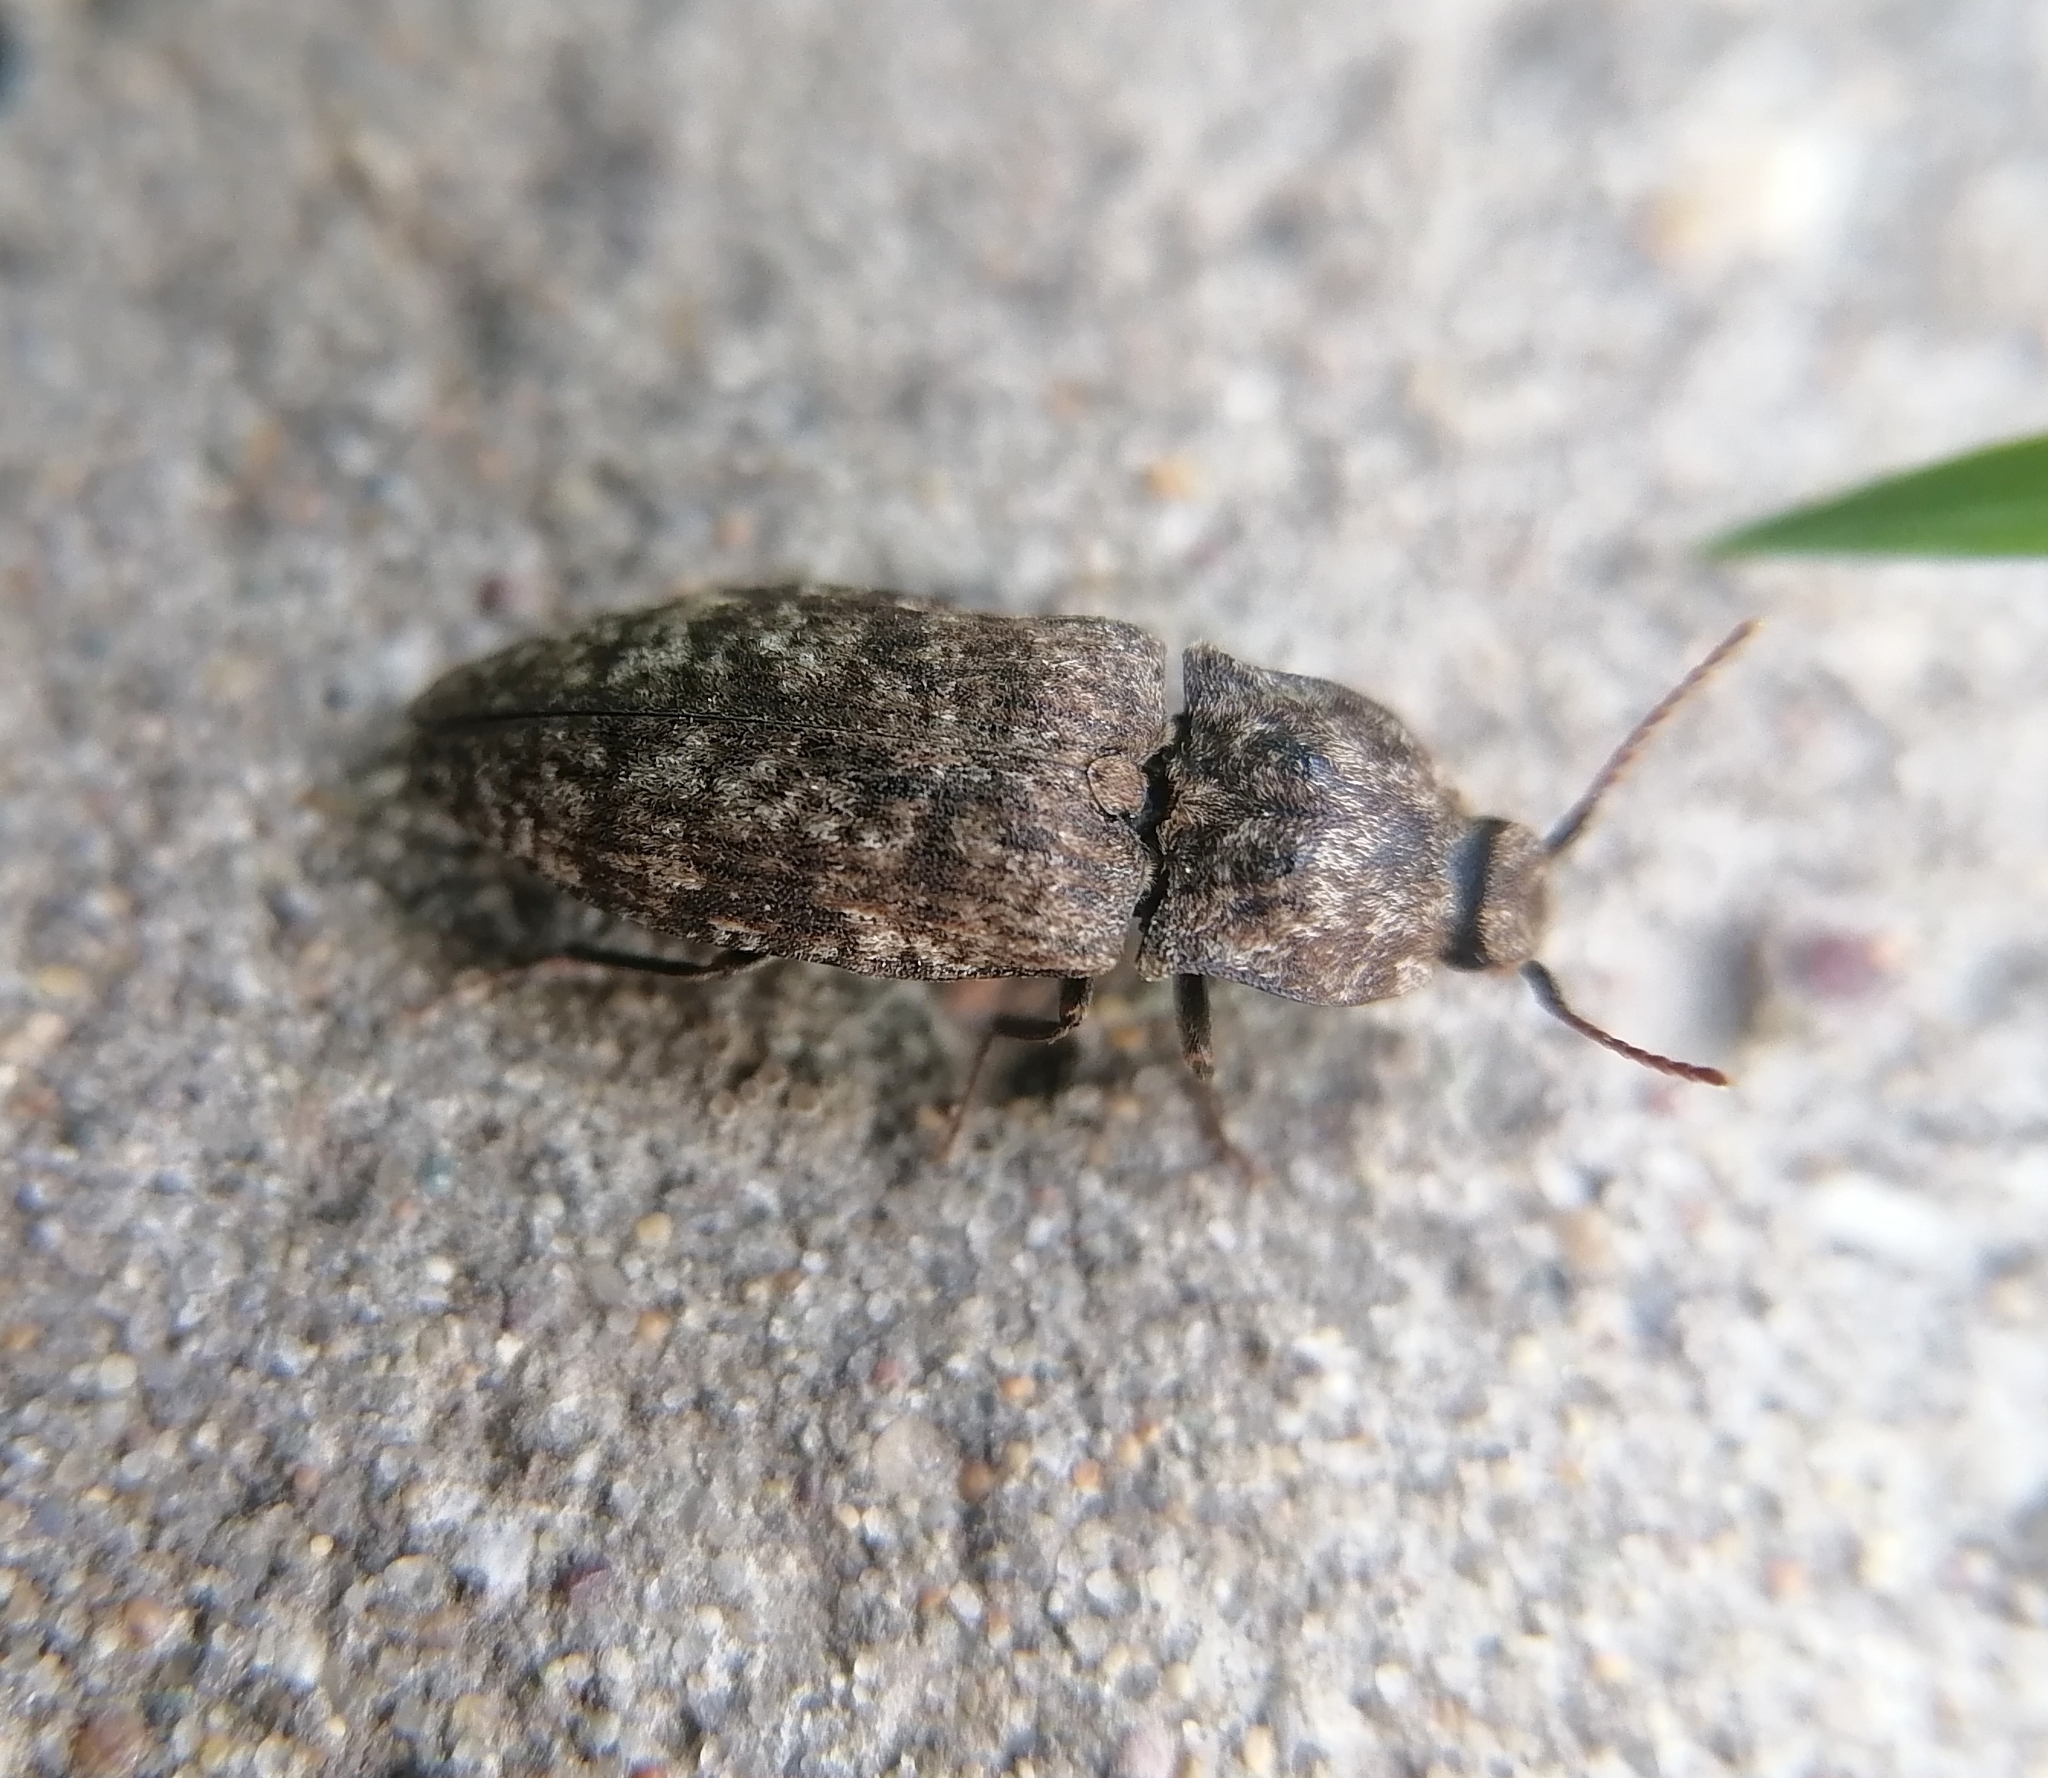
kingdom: Animalia
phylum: Arthropoda
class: Insecta
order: Coleoptera
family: Elateridae
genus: Agrypnus
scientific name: Agrypnus murinus
